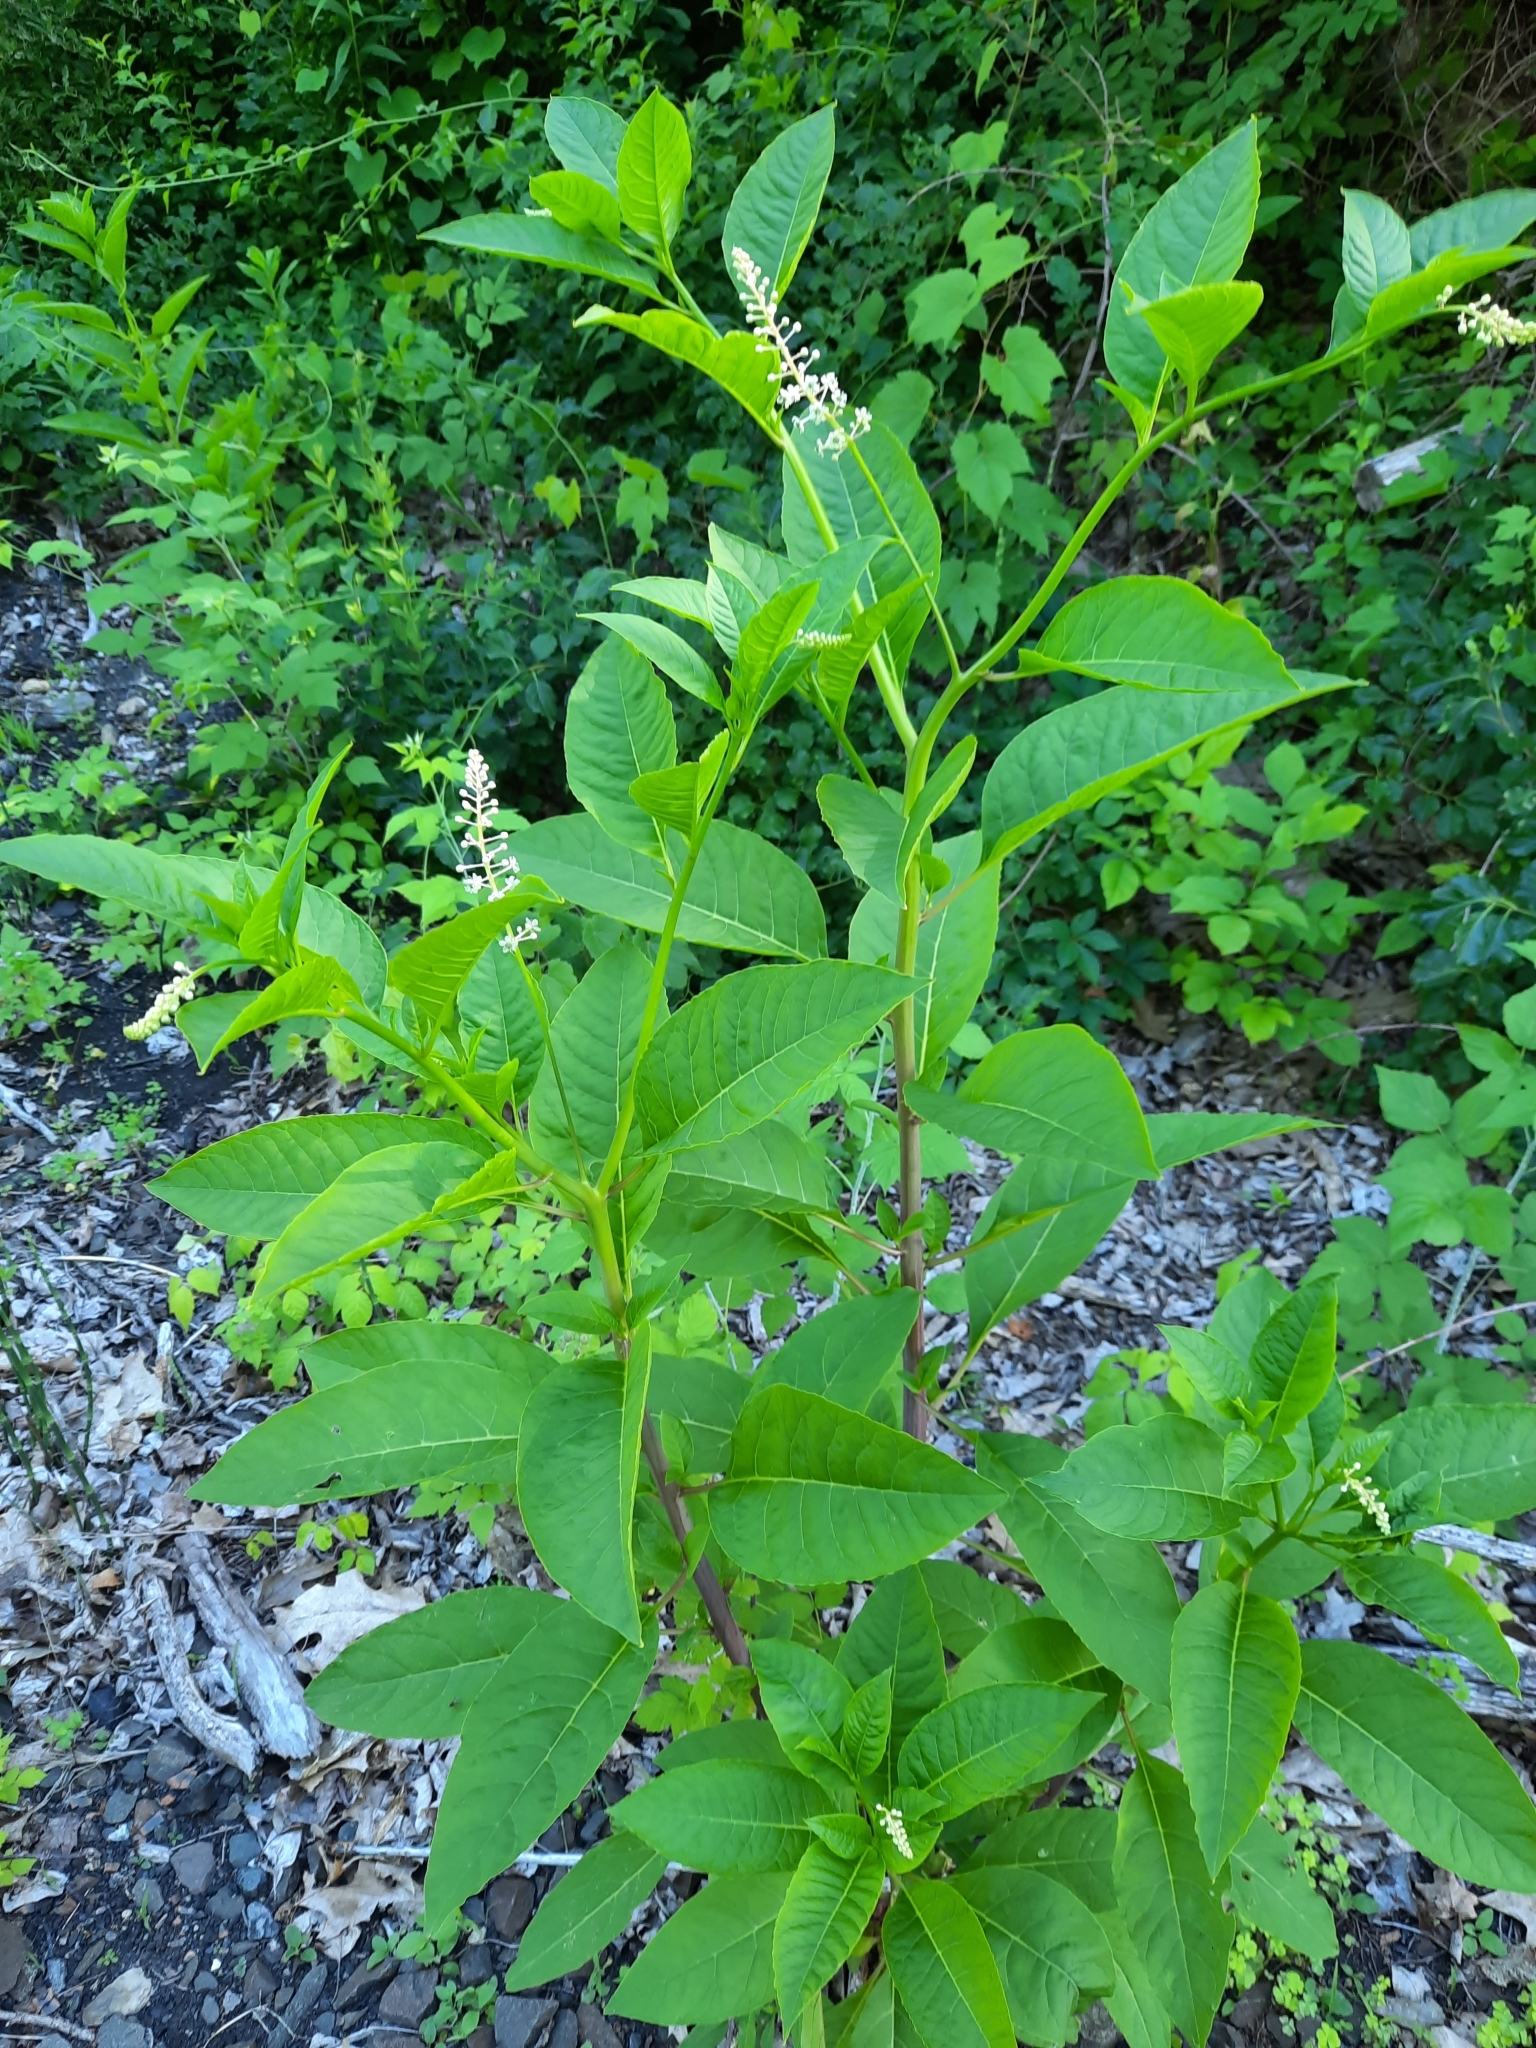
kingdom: Plantae
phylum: Tracheophyta
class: Magnoliopsida
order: Caryophyllales
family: Phytolaccaceae
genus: Phytolacca
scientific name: Phytolacca americana
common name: American pokeweed
